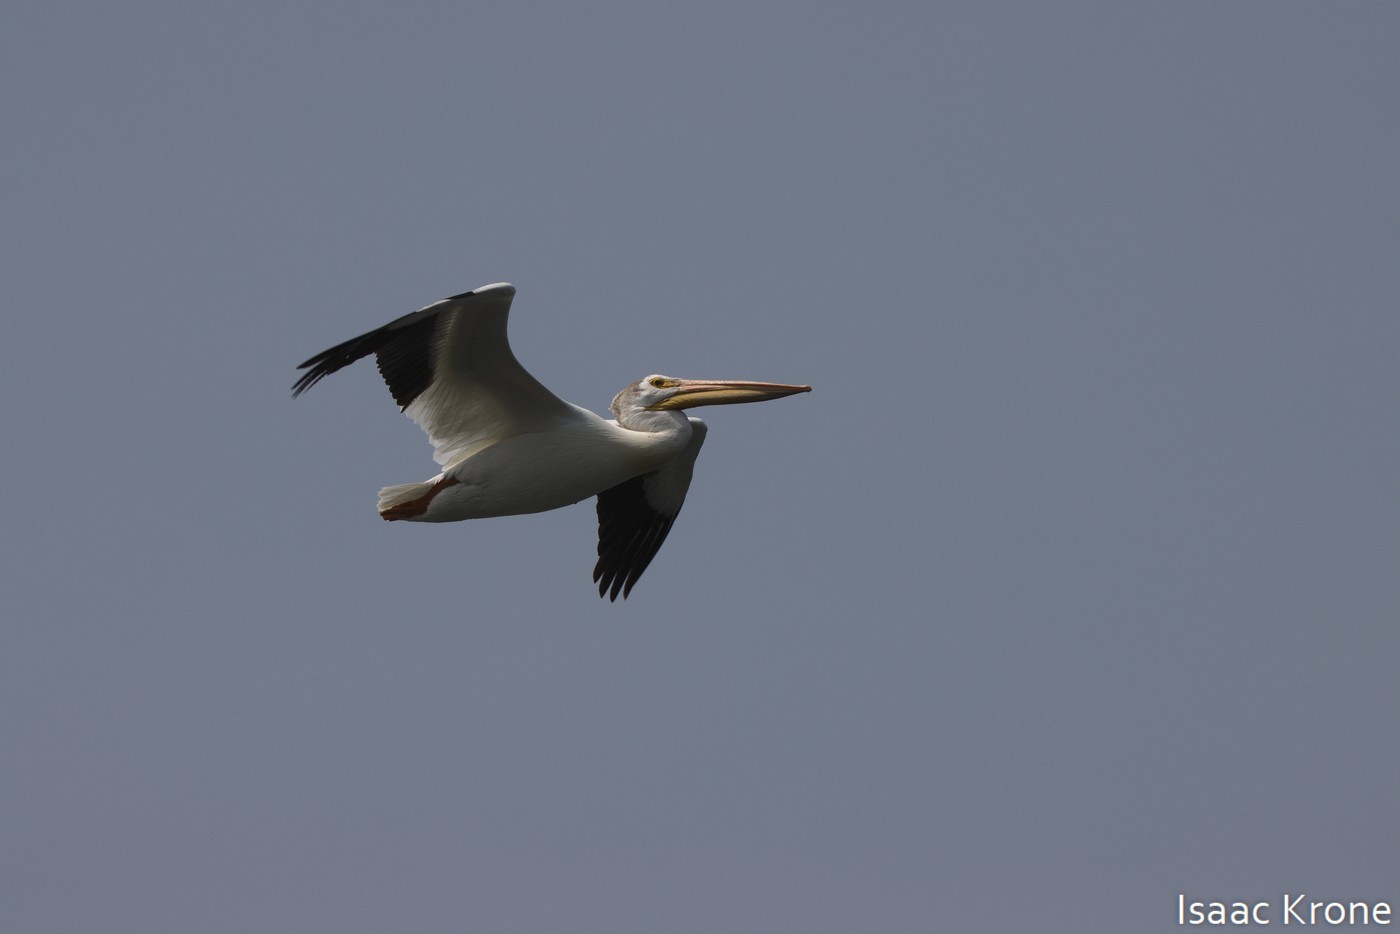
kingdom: Animalia
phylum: Chordata
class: Aves
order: Pelecaniformes
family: Pelecanidae
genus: Pelecanus
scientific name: Pelecanus erythrorhynchos
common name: American white pelican
